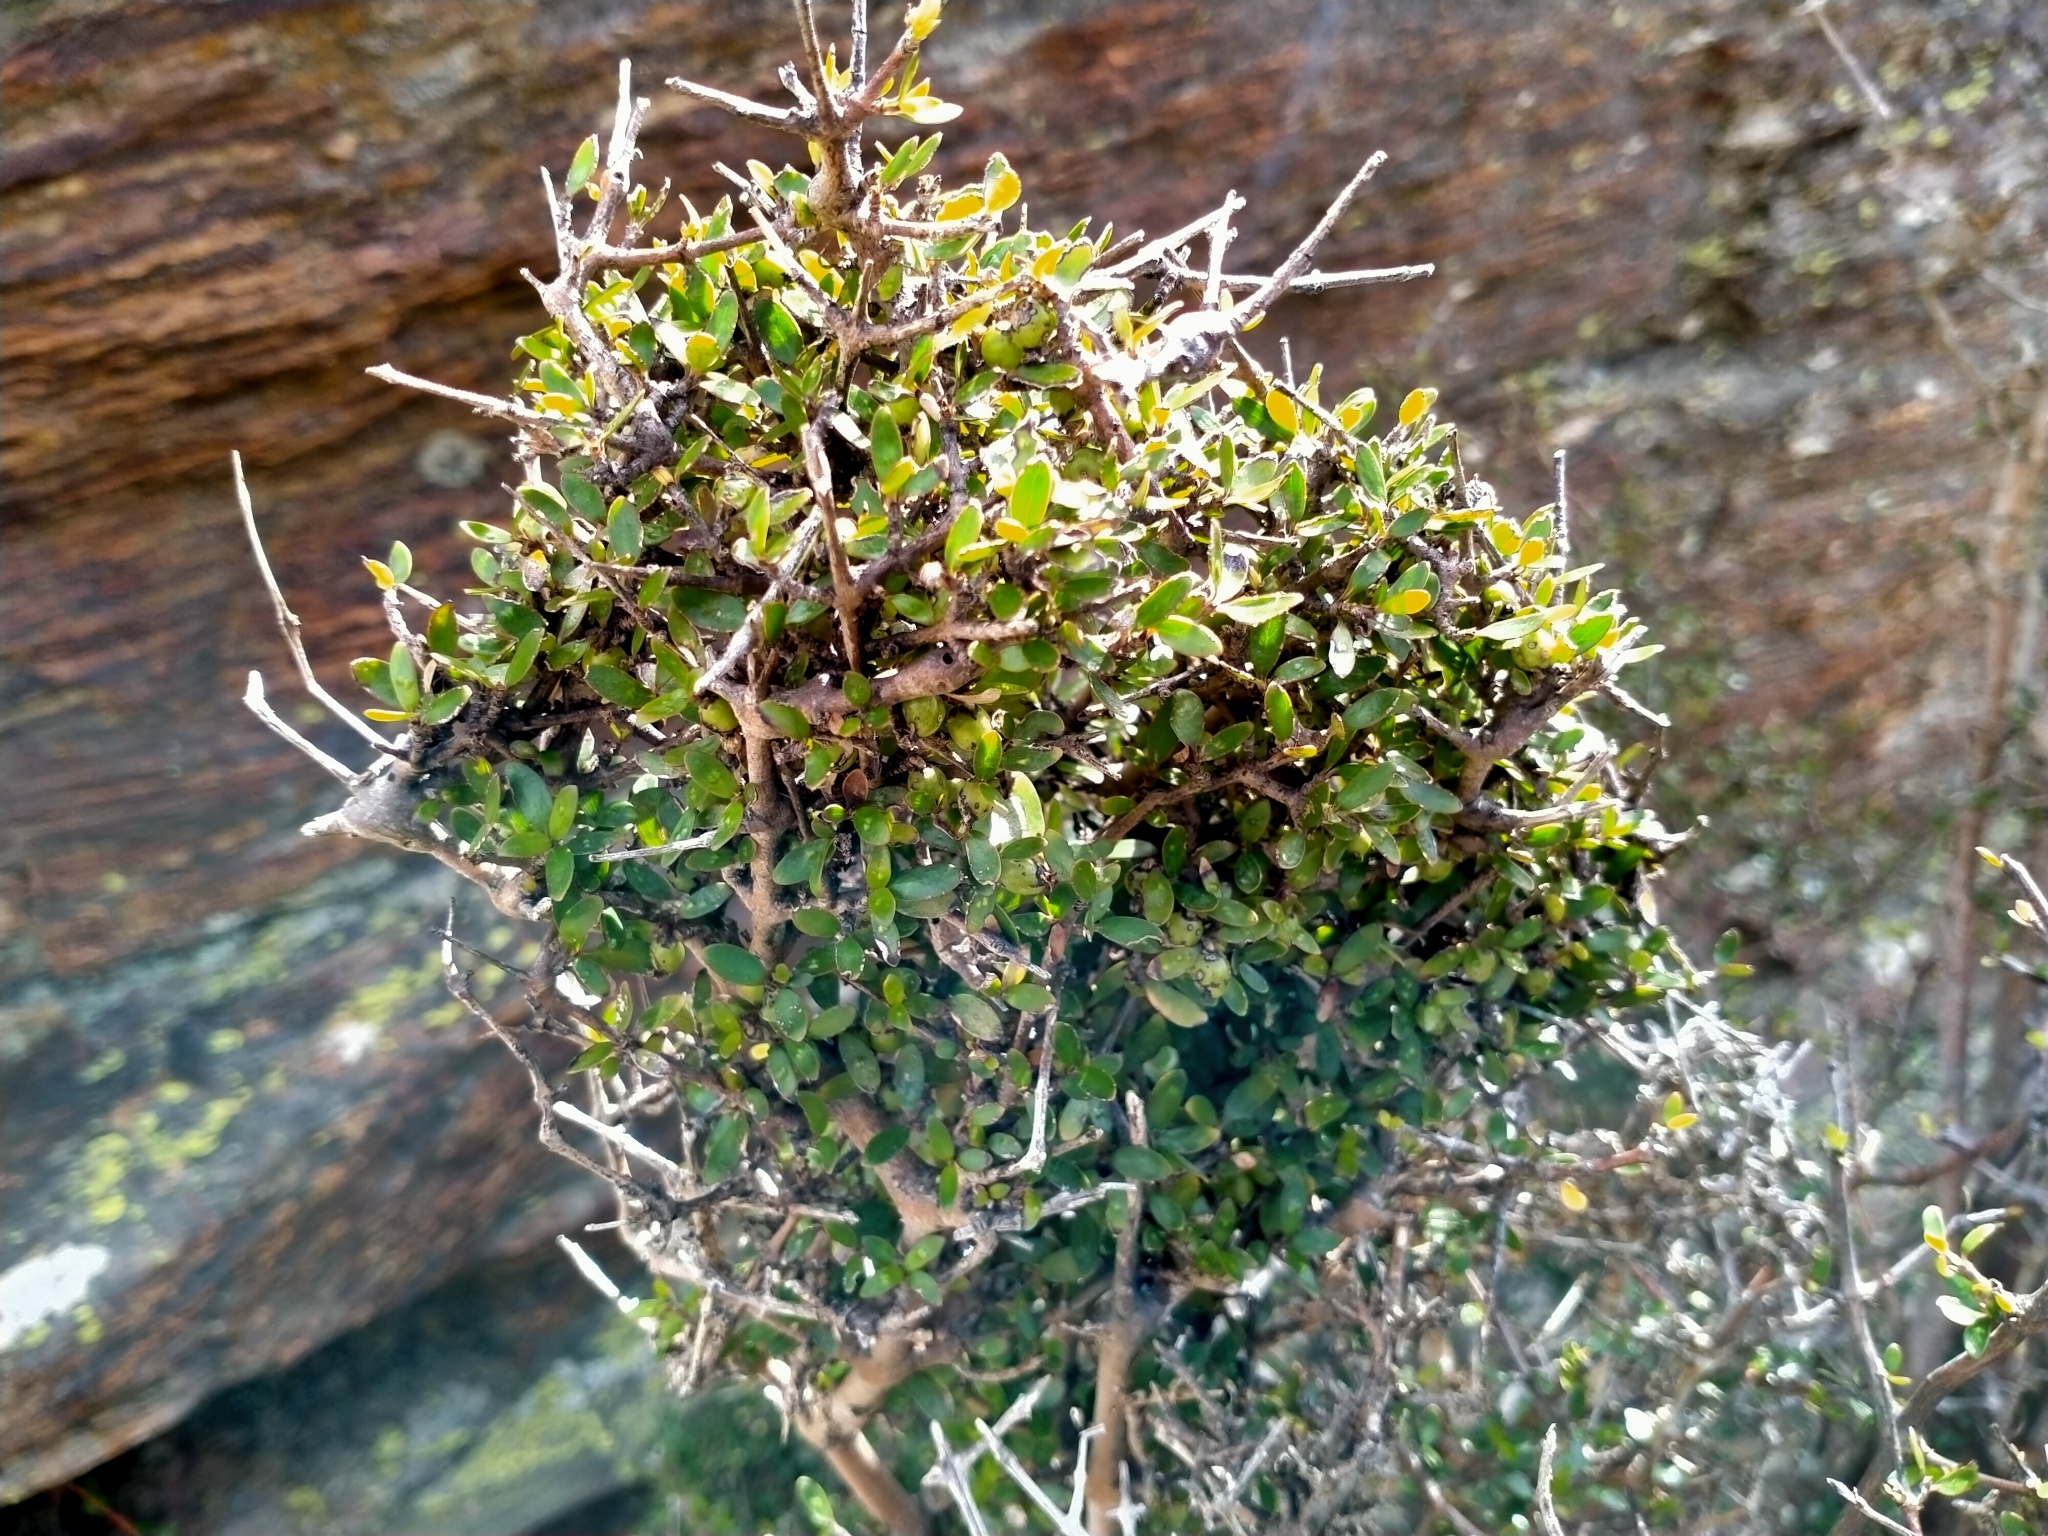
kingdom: Plantae
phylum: Tracheophyta
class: Magnoliopsida
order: Gentianales
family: Rubiaceae
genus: Coprosma
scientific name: Coprosma propinqua
